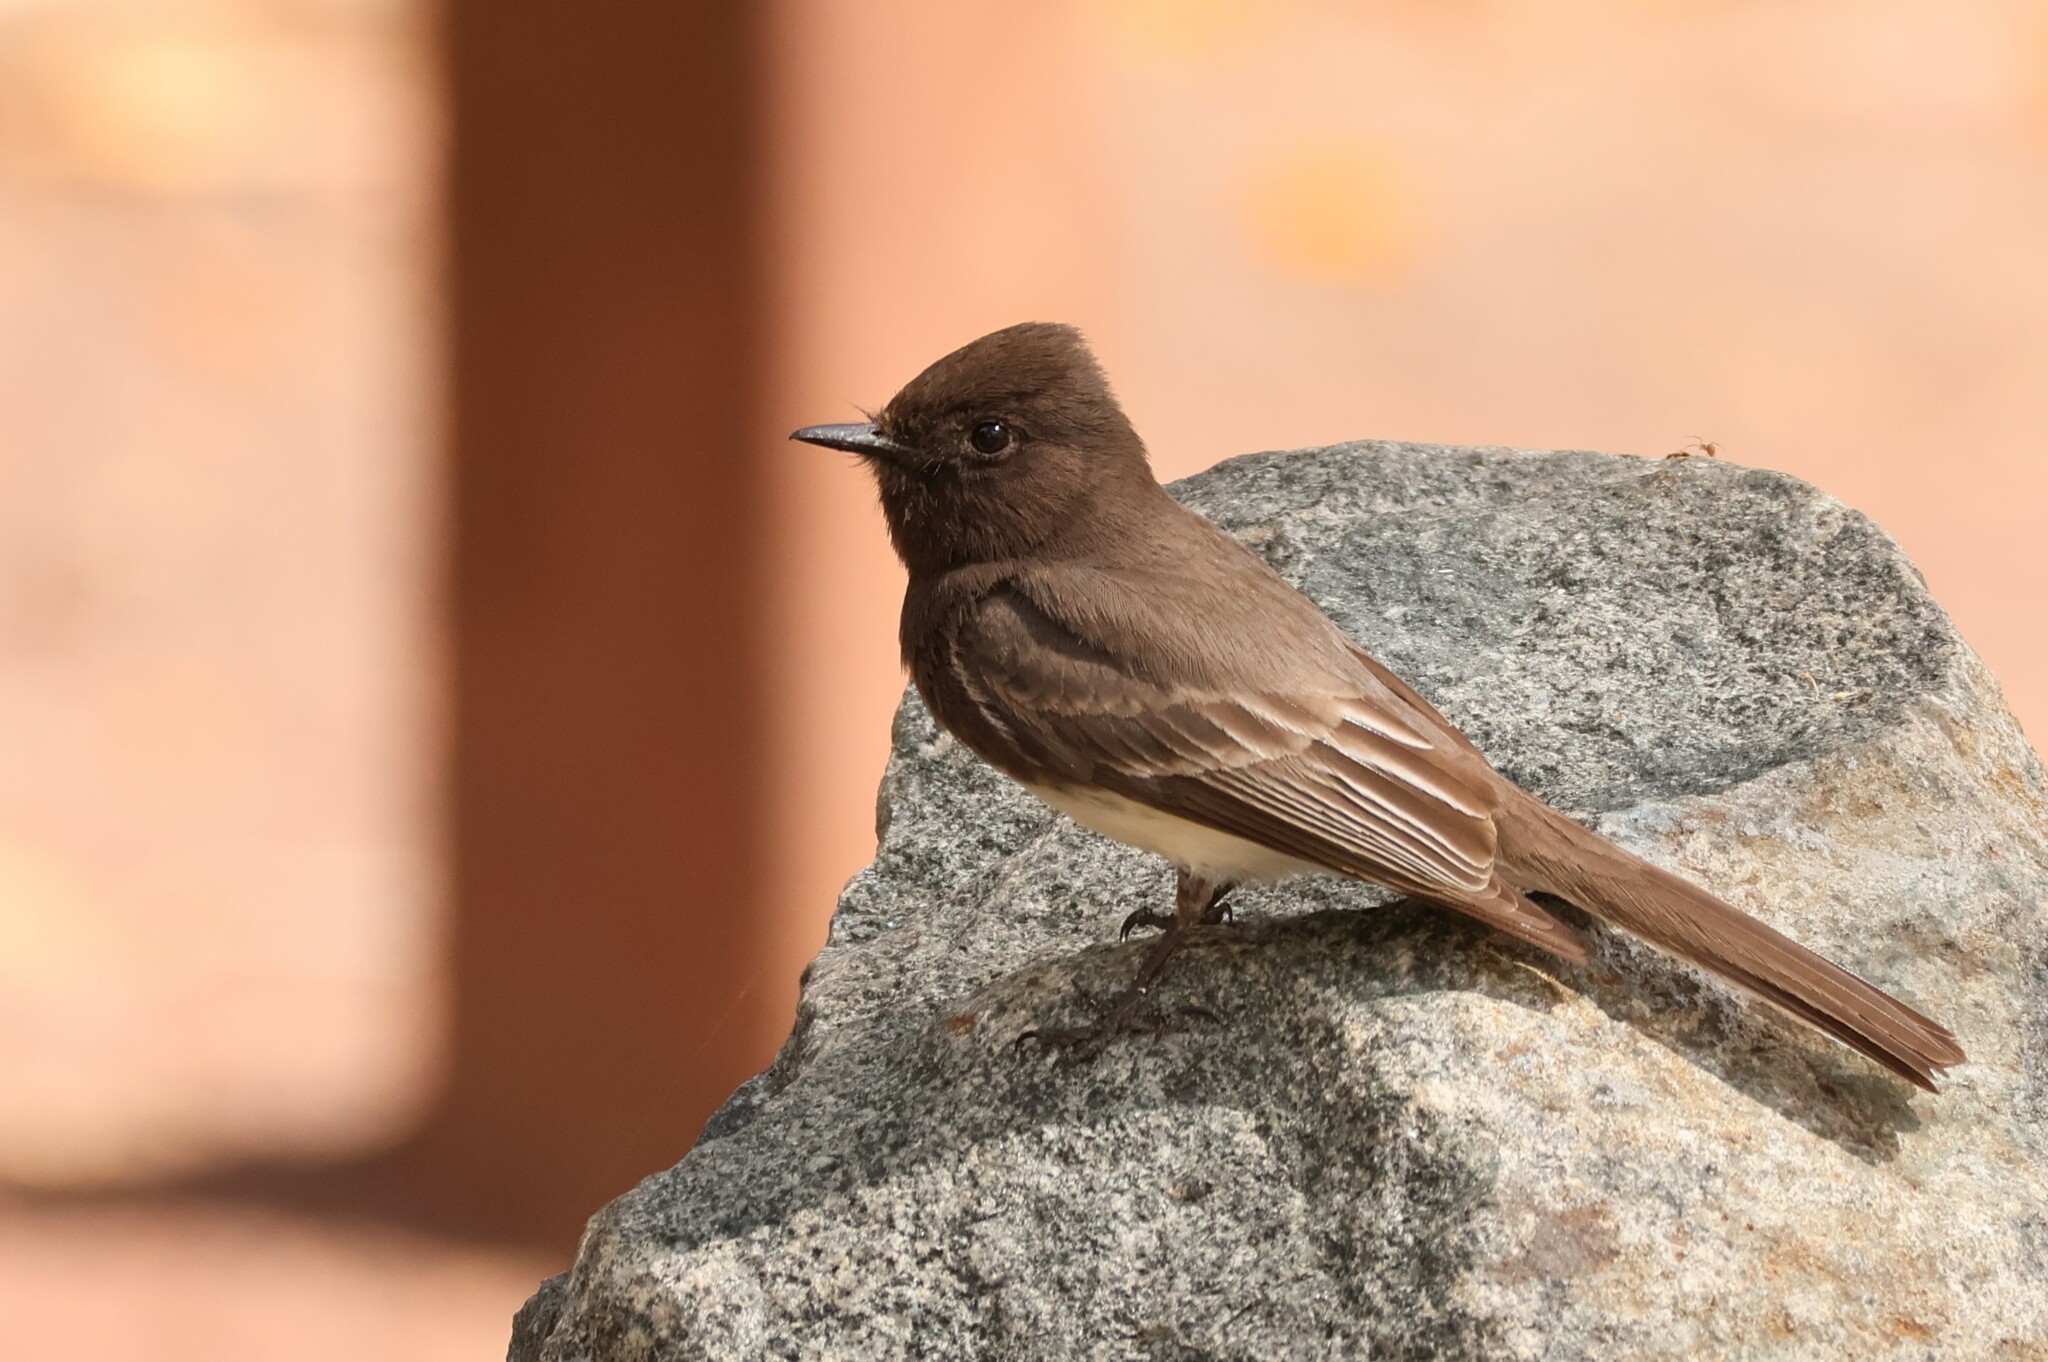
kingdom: Animalia
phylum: Chordata
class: Aves
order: Passeriformes
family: Tyrannidae
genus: Sayornis
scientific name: Sayornis nigricans
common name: Black phoebe
